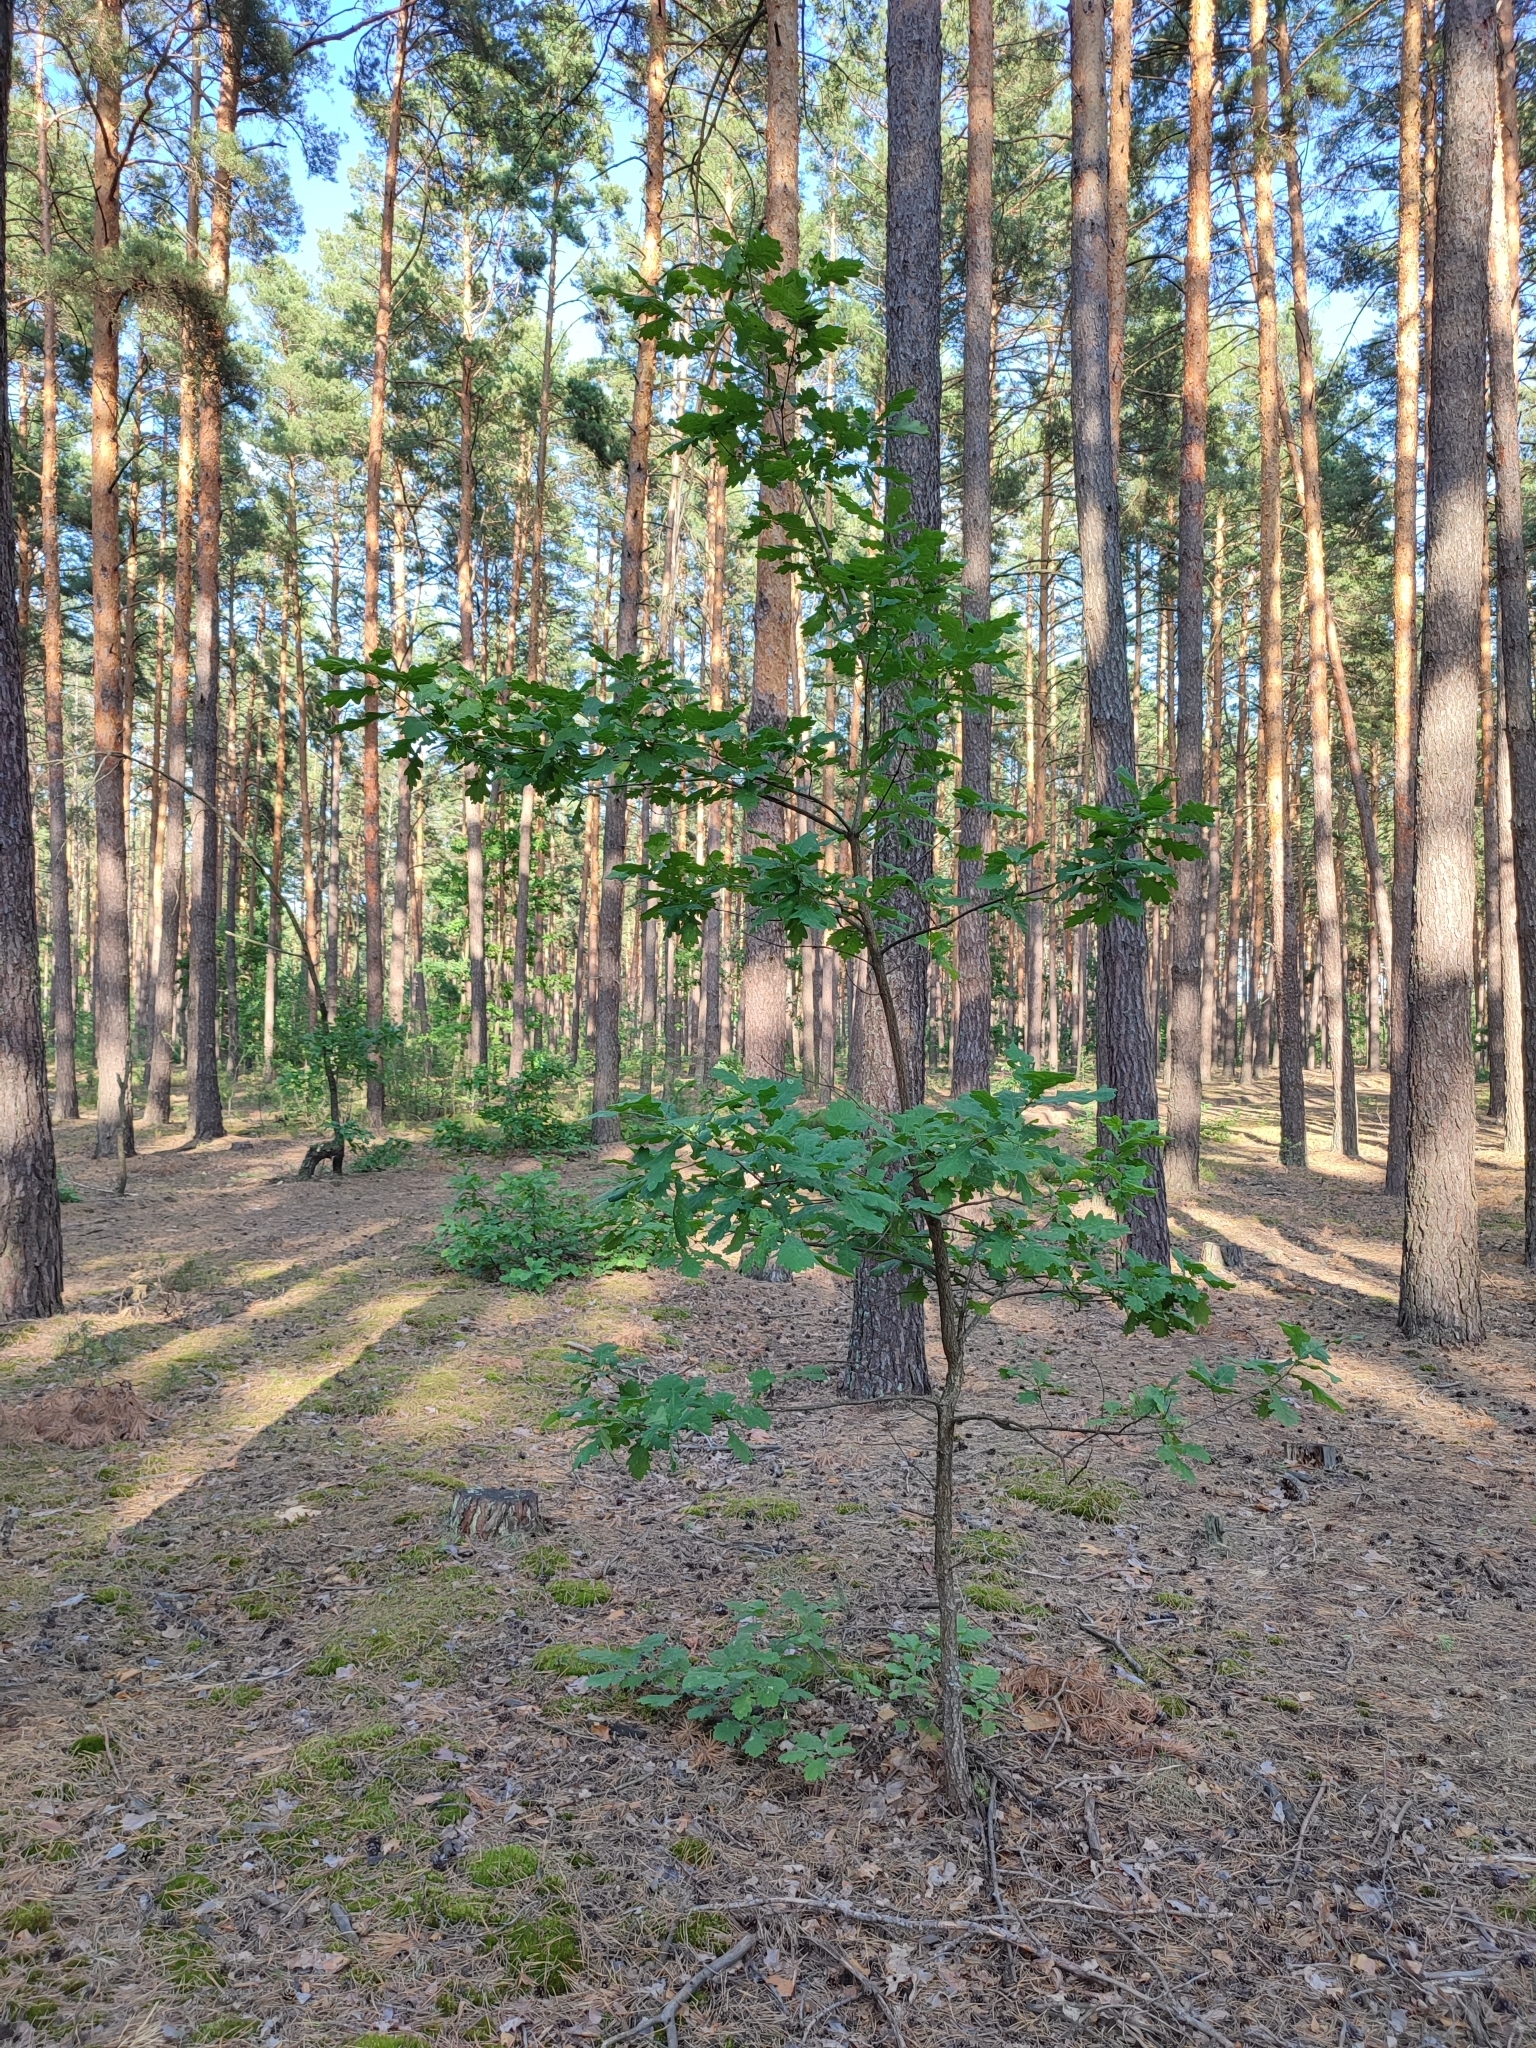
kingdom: Plantae
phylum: Tracheophyta
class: Magnoliopsida
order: Fagales
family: Fagaceae
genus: Quercus
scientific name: Quercus robur
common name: Pedunculate oak
